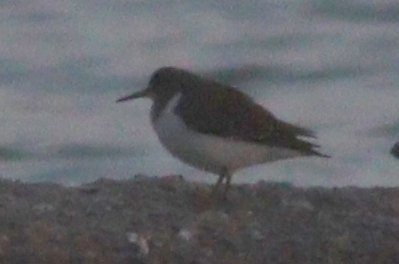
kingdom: Animalia
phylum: Chordata
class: Aves
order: Charadriiformes
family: Scolopacidae
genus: Actitis
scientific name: Actitis hypoleucos
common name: Common sandpiper
